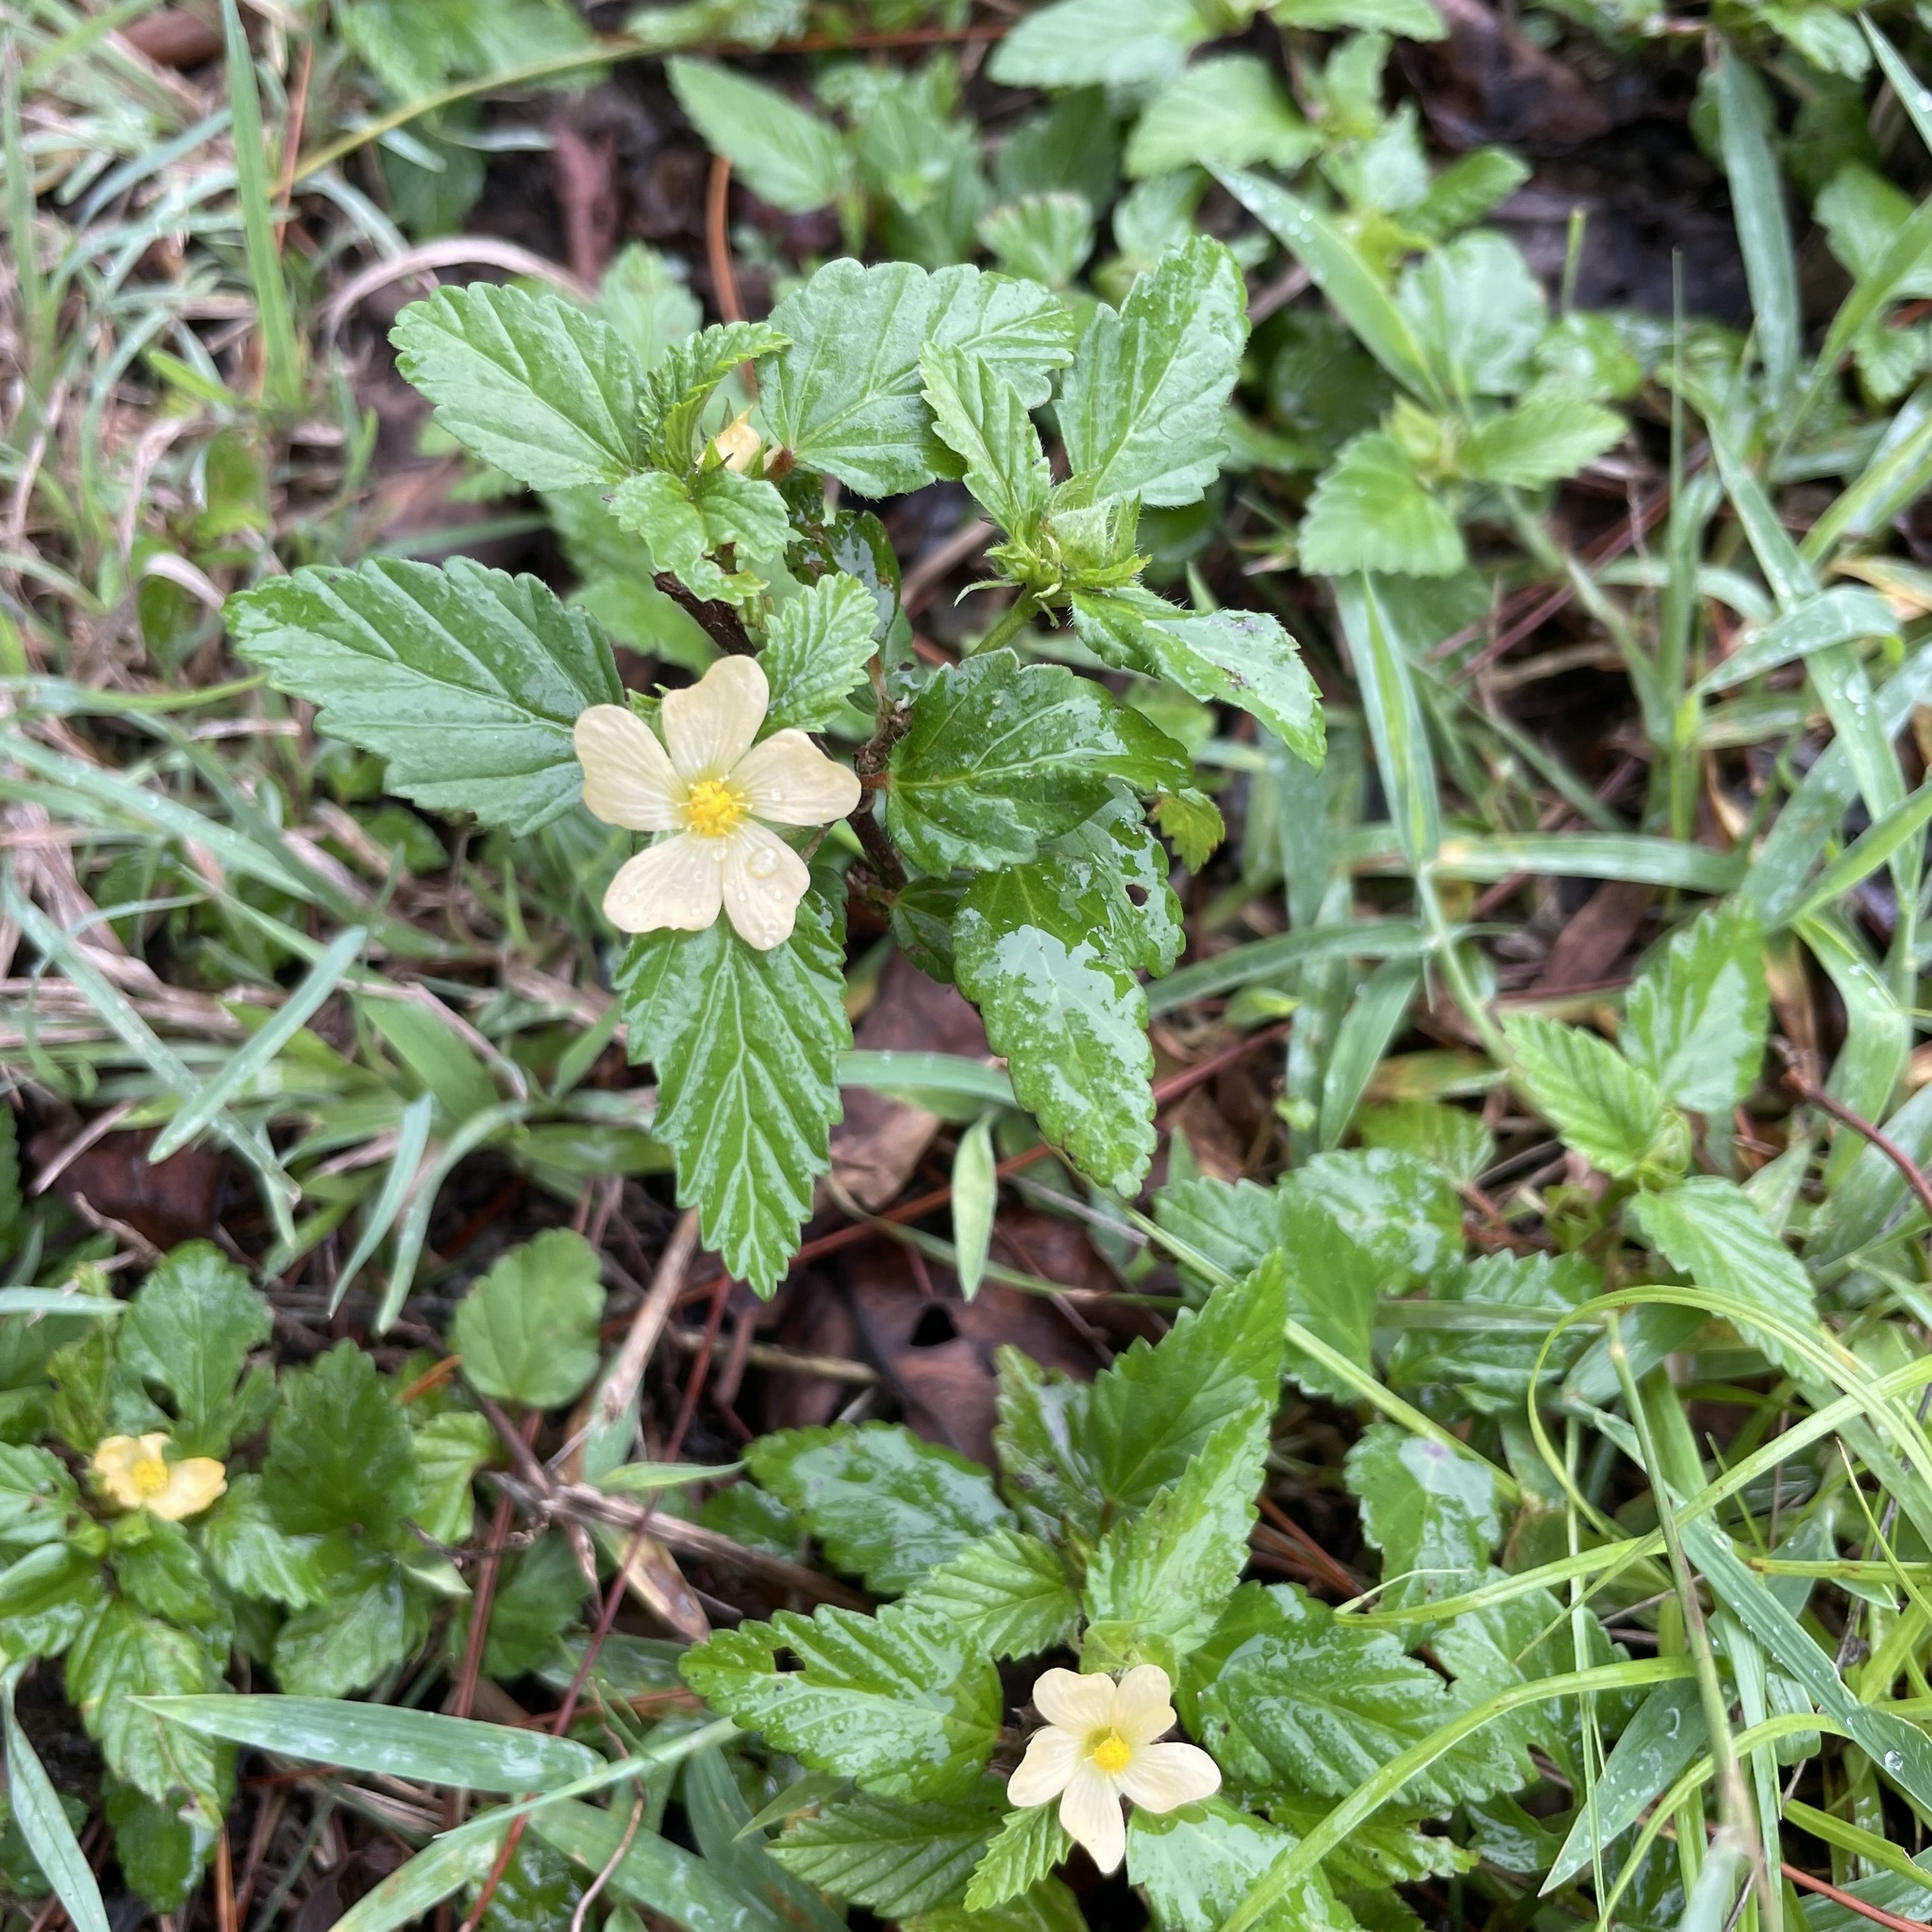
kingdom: Plantae
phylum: Tracheophyta
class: Magnoliopsida
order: Malvales
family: Malvaceae
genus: Malvastrum
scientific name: Malvastrum coromandelianum
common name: Threelobe false mallow
